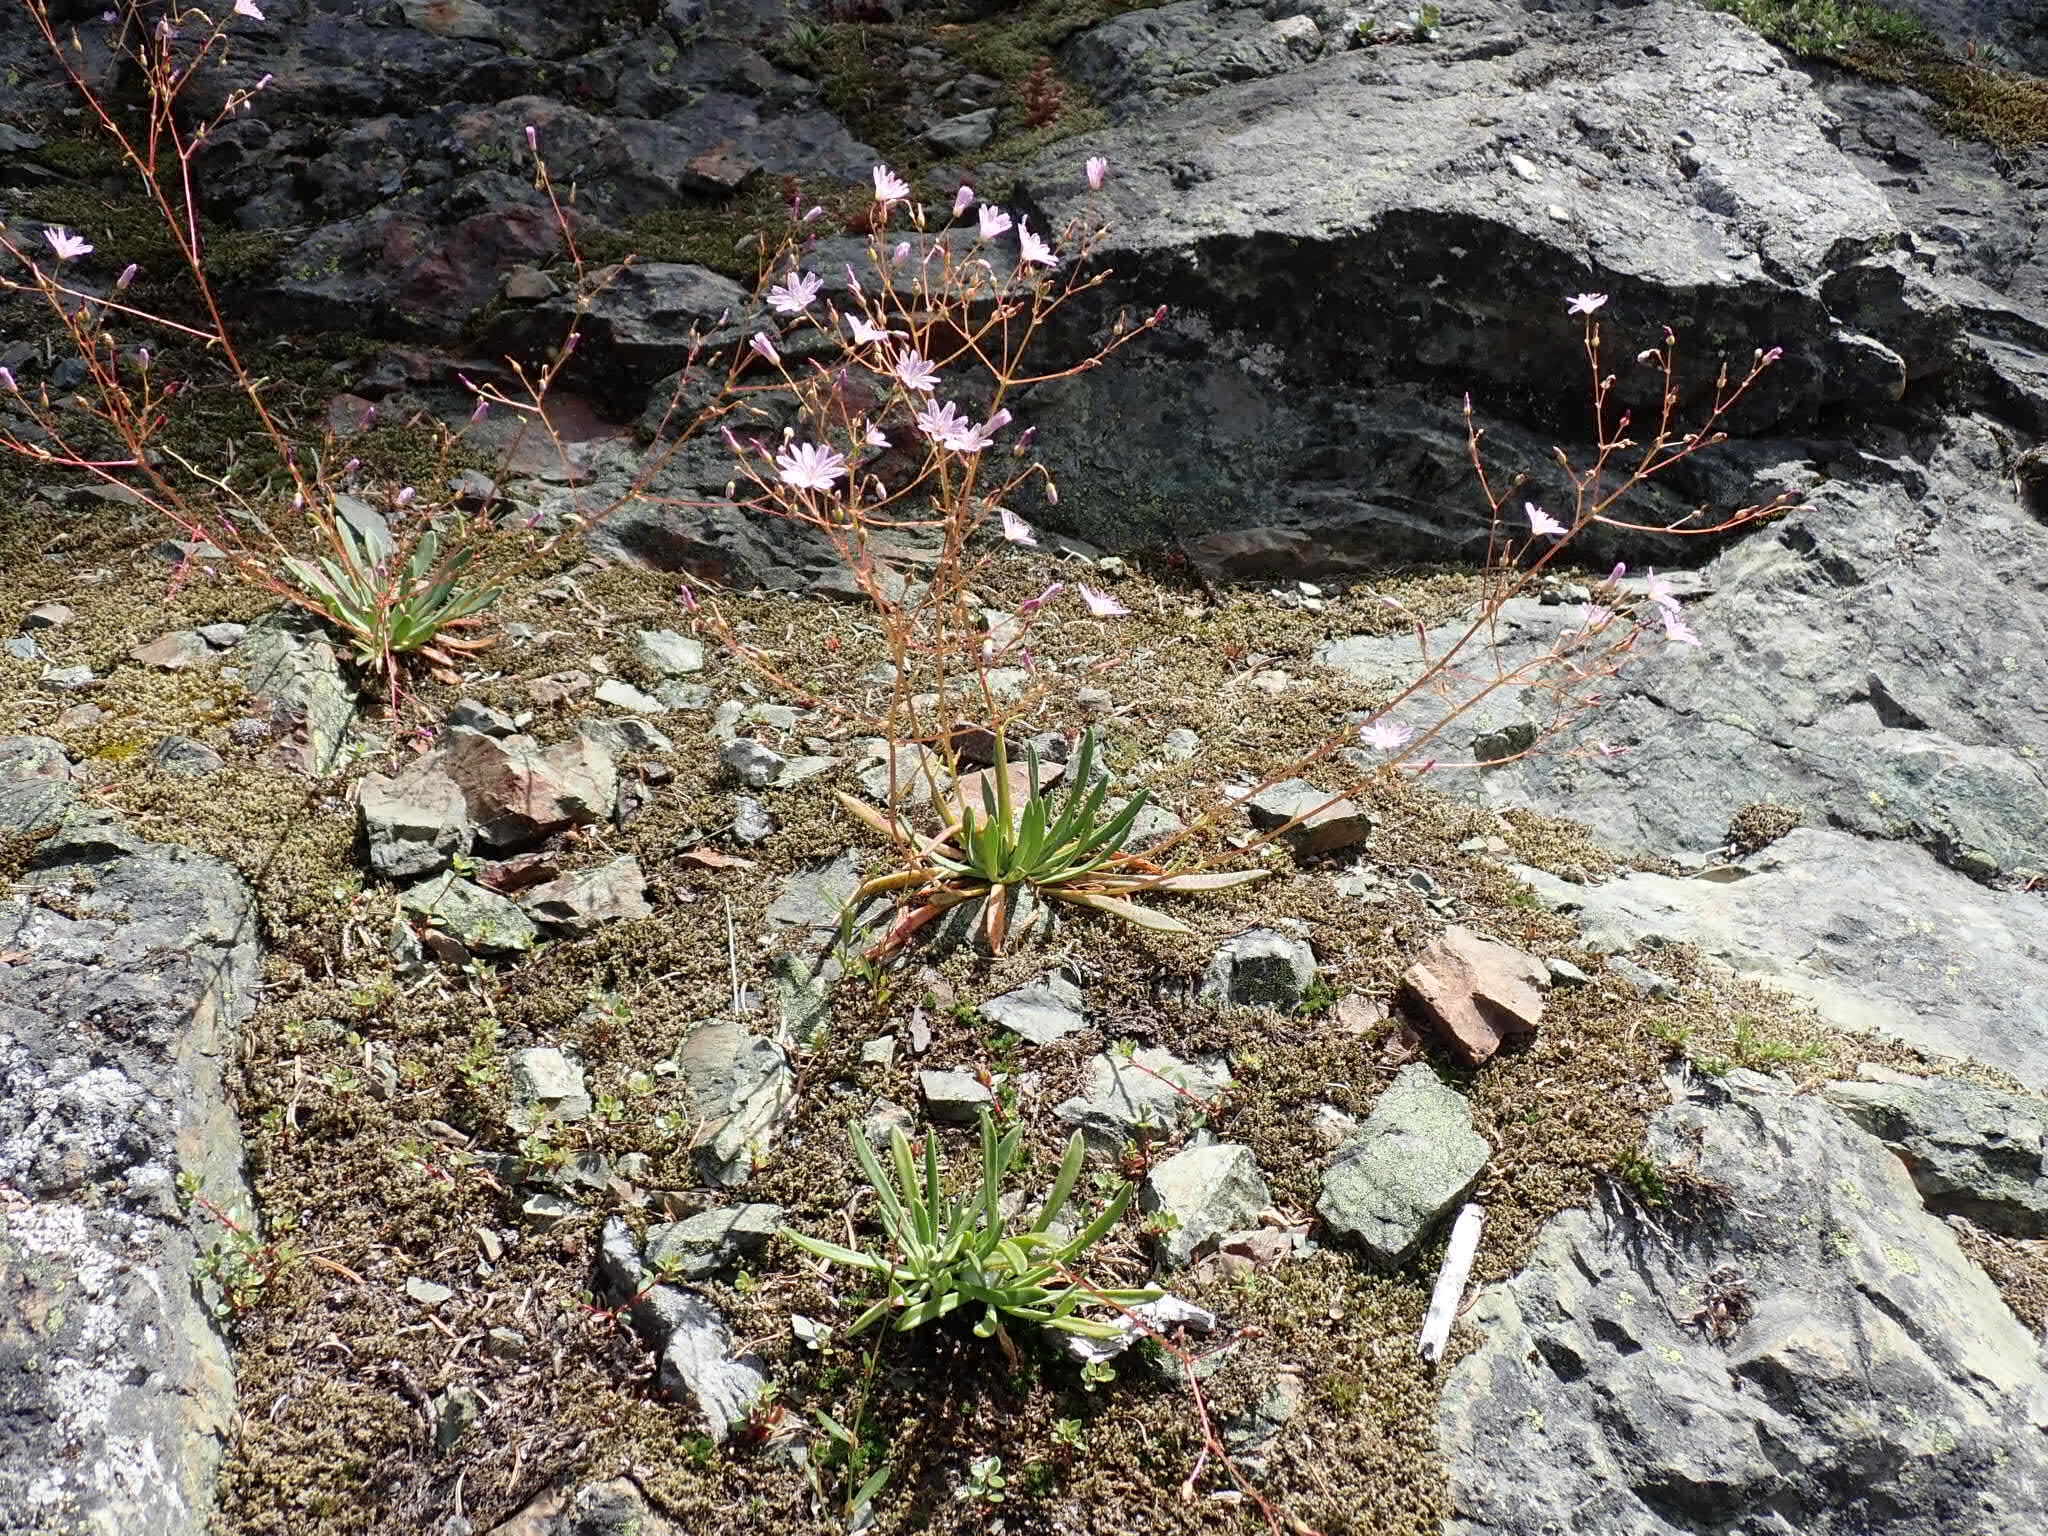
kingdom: Plantae
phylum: Tracheophyta
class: Magnoliopsida
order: Caryophyllales
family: Montiaceae
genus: Lewisia
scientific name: Lewisia columbiana
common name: Columbia lewisia
